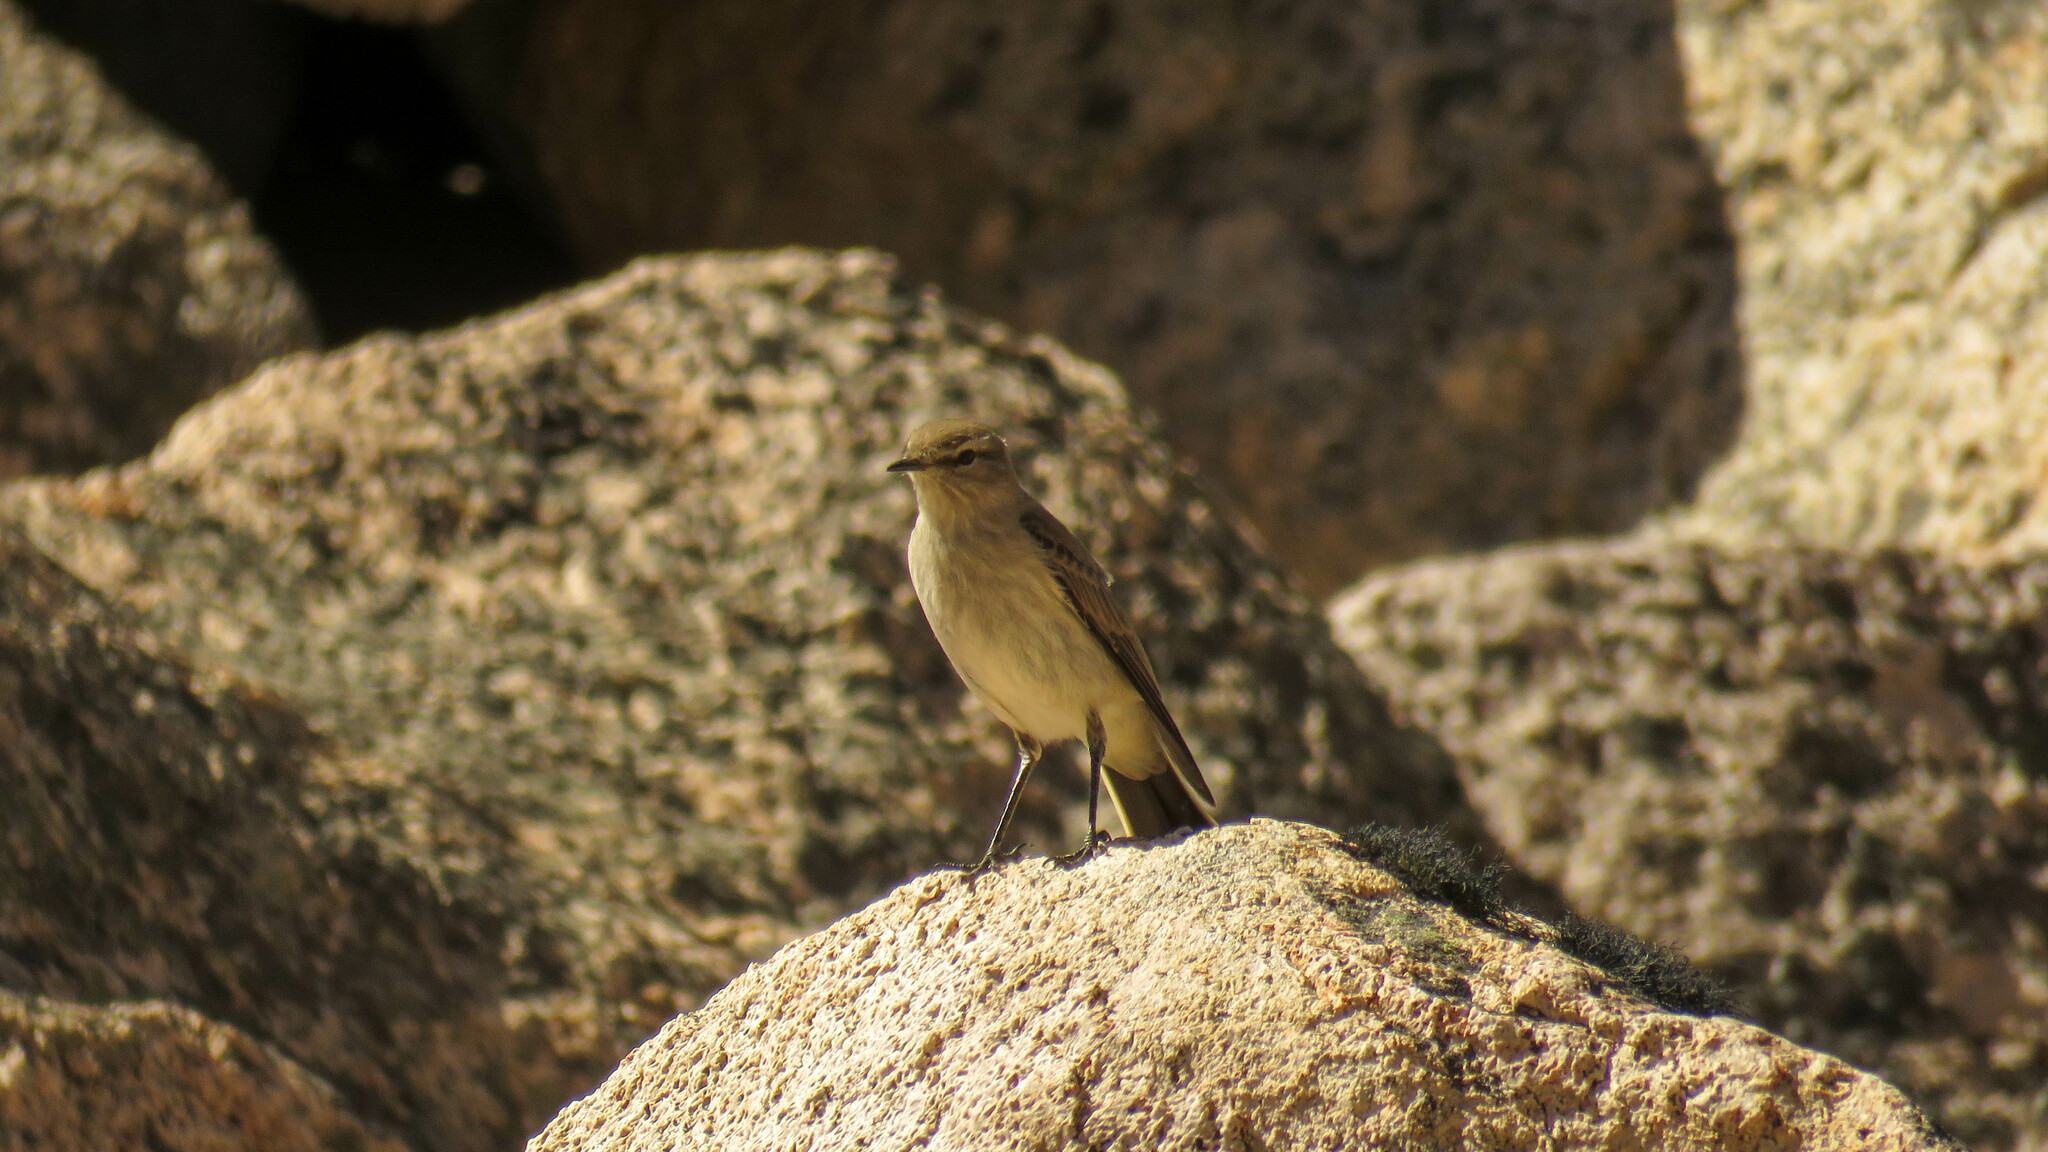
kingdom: Animalia
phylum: Chordata
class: Aves
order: Passeriformes
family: Tyrannidae
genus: Muscisaxicola
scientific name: Muscisaxicola albilora
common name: White-browed ground tyrant
